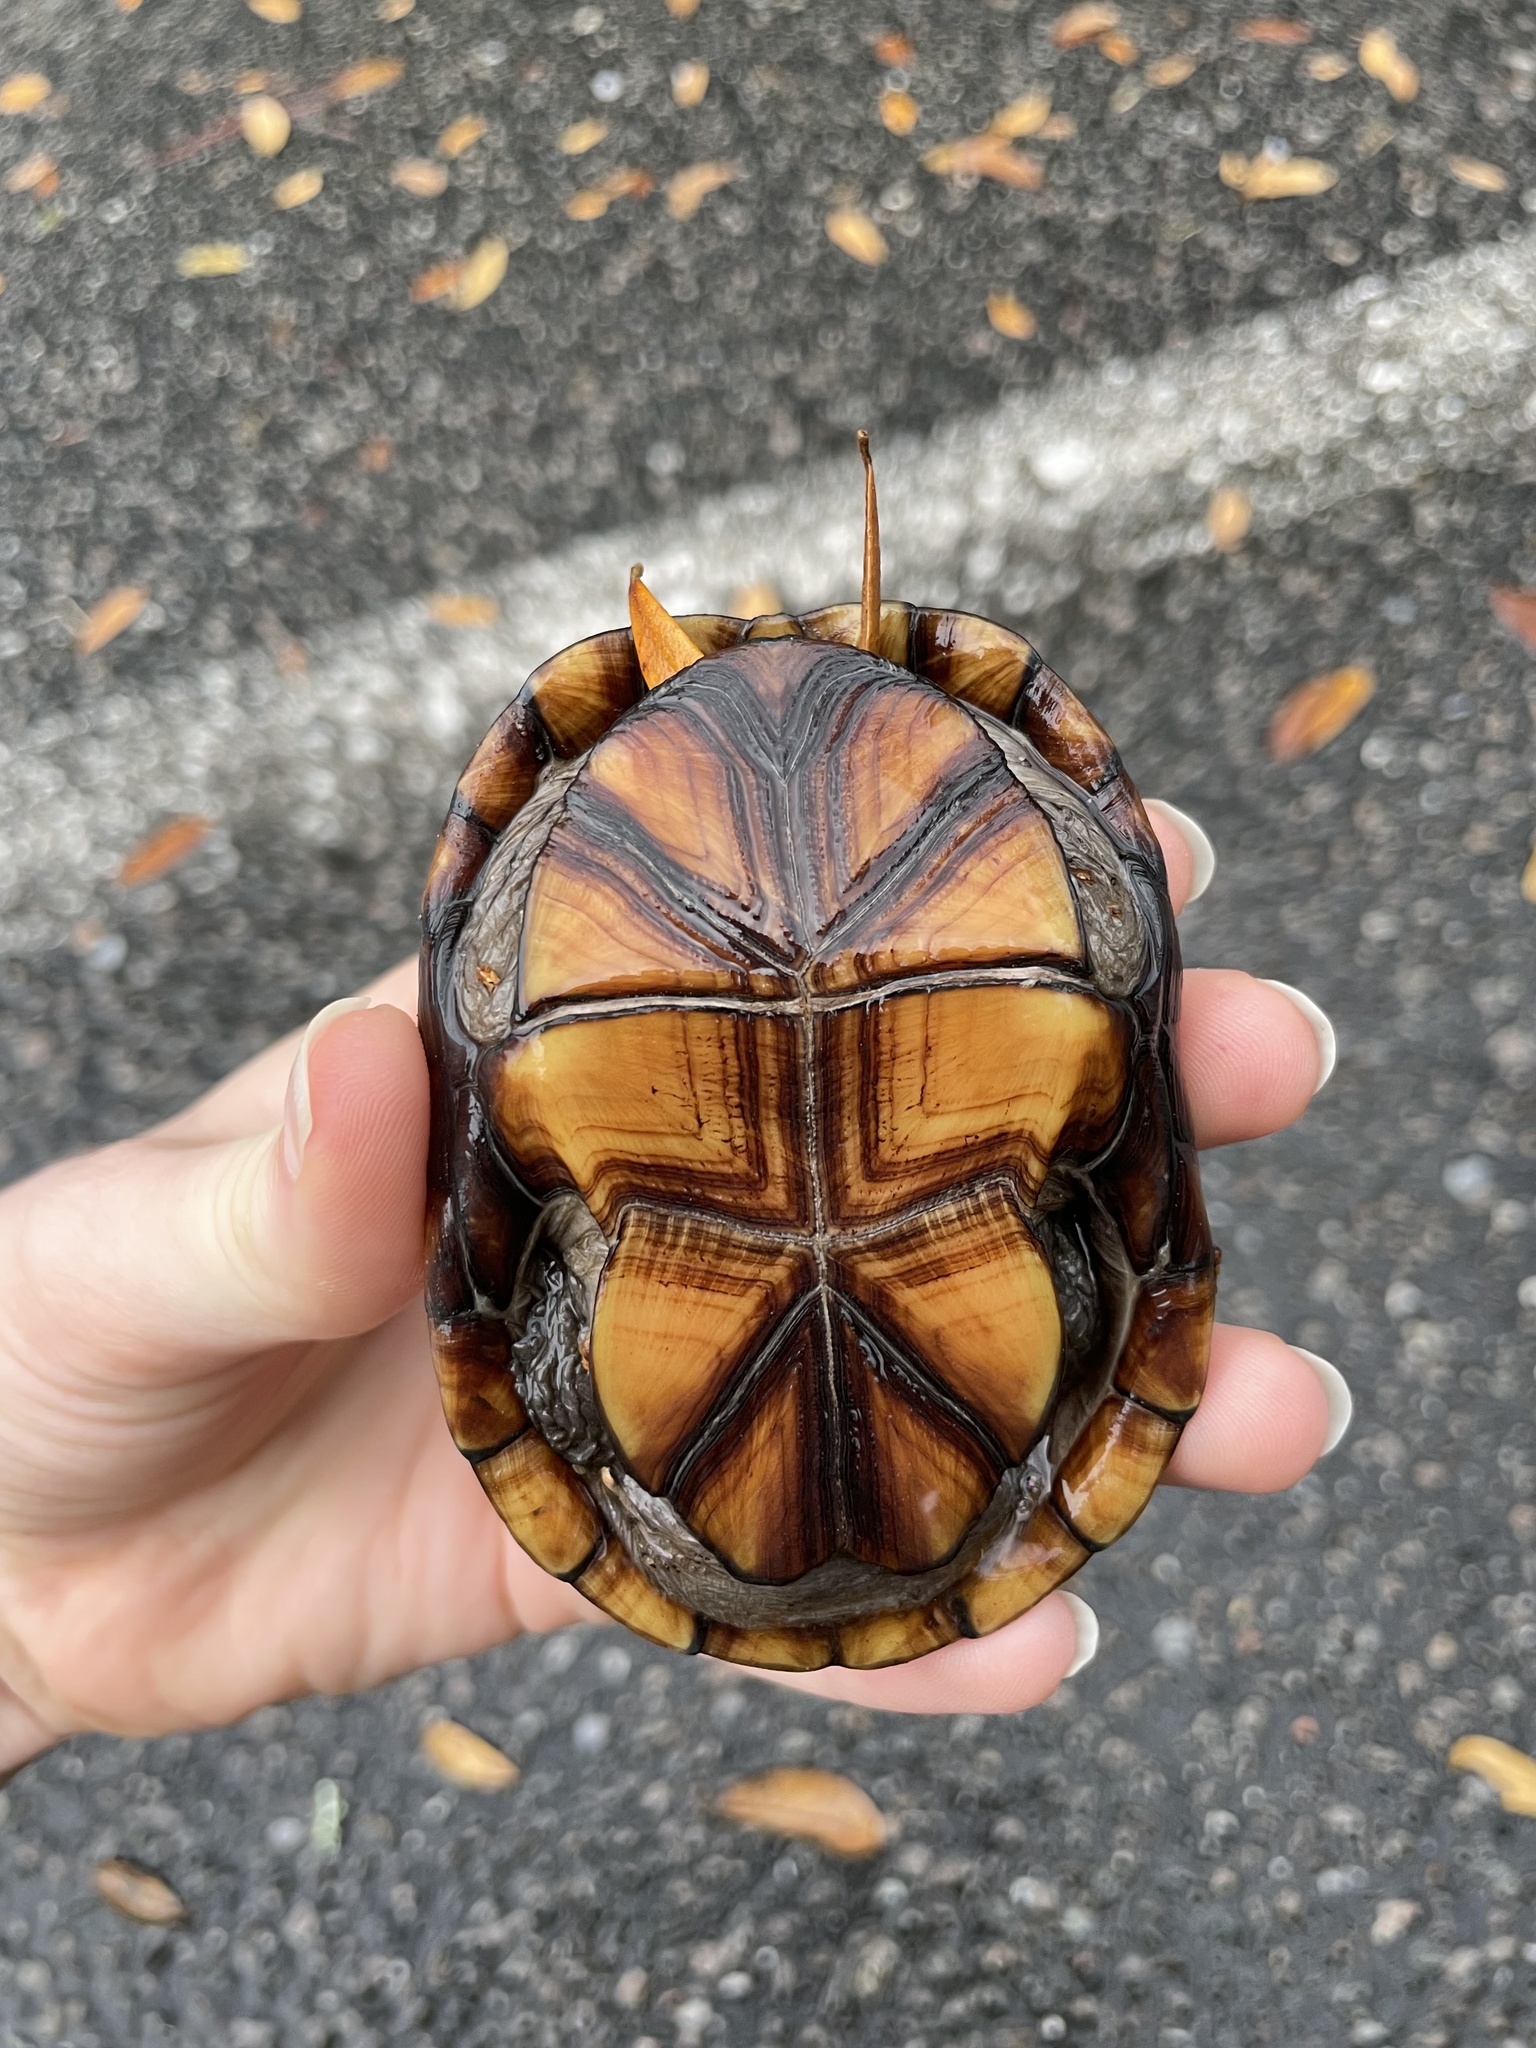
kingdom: Animalia
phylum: Chordata
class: Testudines
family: Kinosternidae
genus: Kinosternon
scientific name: Kinosternon subrubrum
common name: Eastern mud turtle
